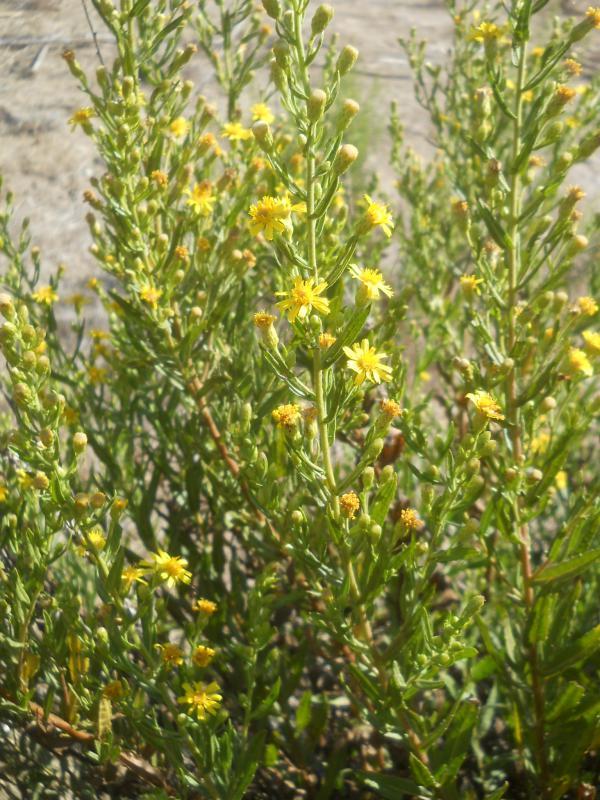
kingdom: Plantae
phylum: Tracheophyta
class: Magnoliopsida
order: Asterales
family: Asteraceae
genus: Dittrichia
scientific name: Dittrichia viscosa
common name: Woody fleabane
